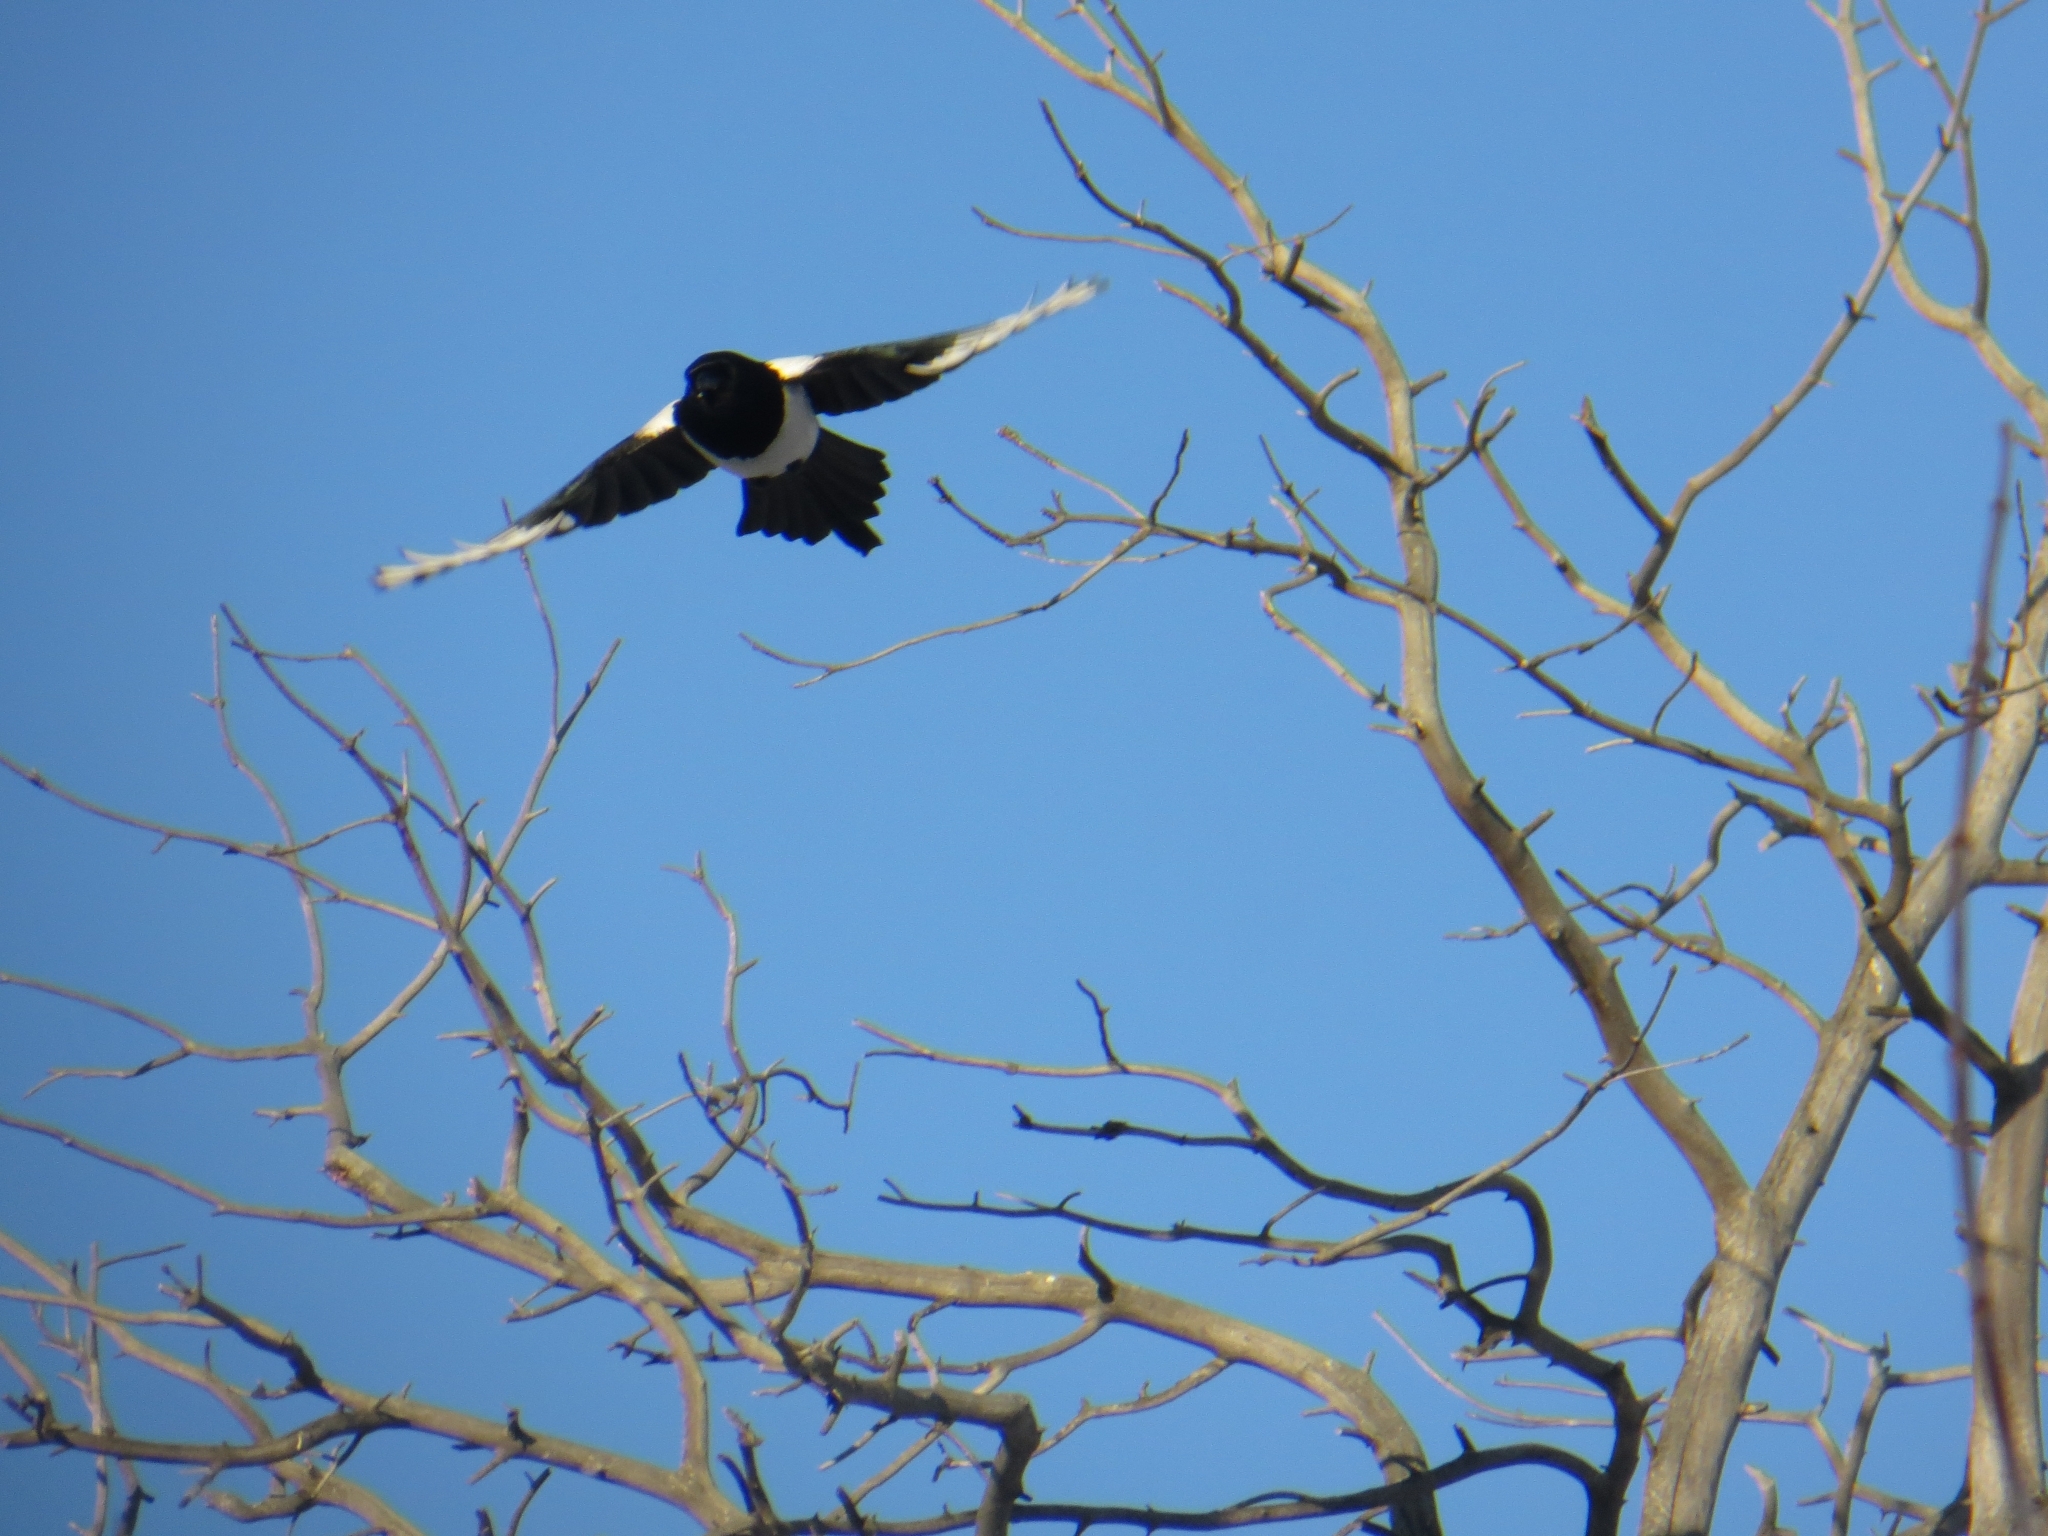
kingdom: Animalia
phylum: Chordata
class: Aves
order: Passeriformes
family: Corvidae
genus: Pica
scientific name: Pica pica
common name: Eurasian magpie
